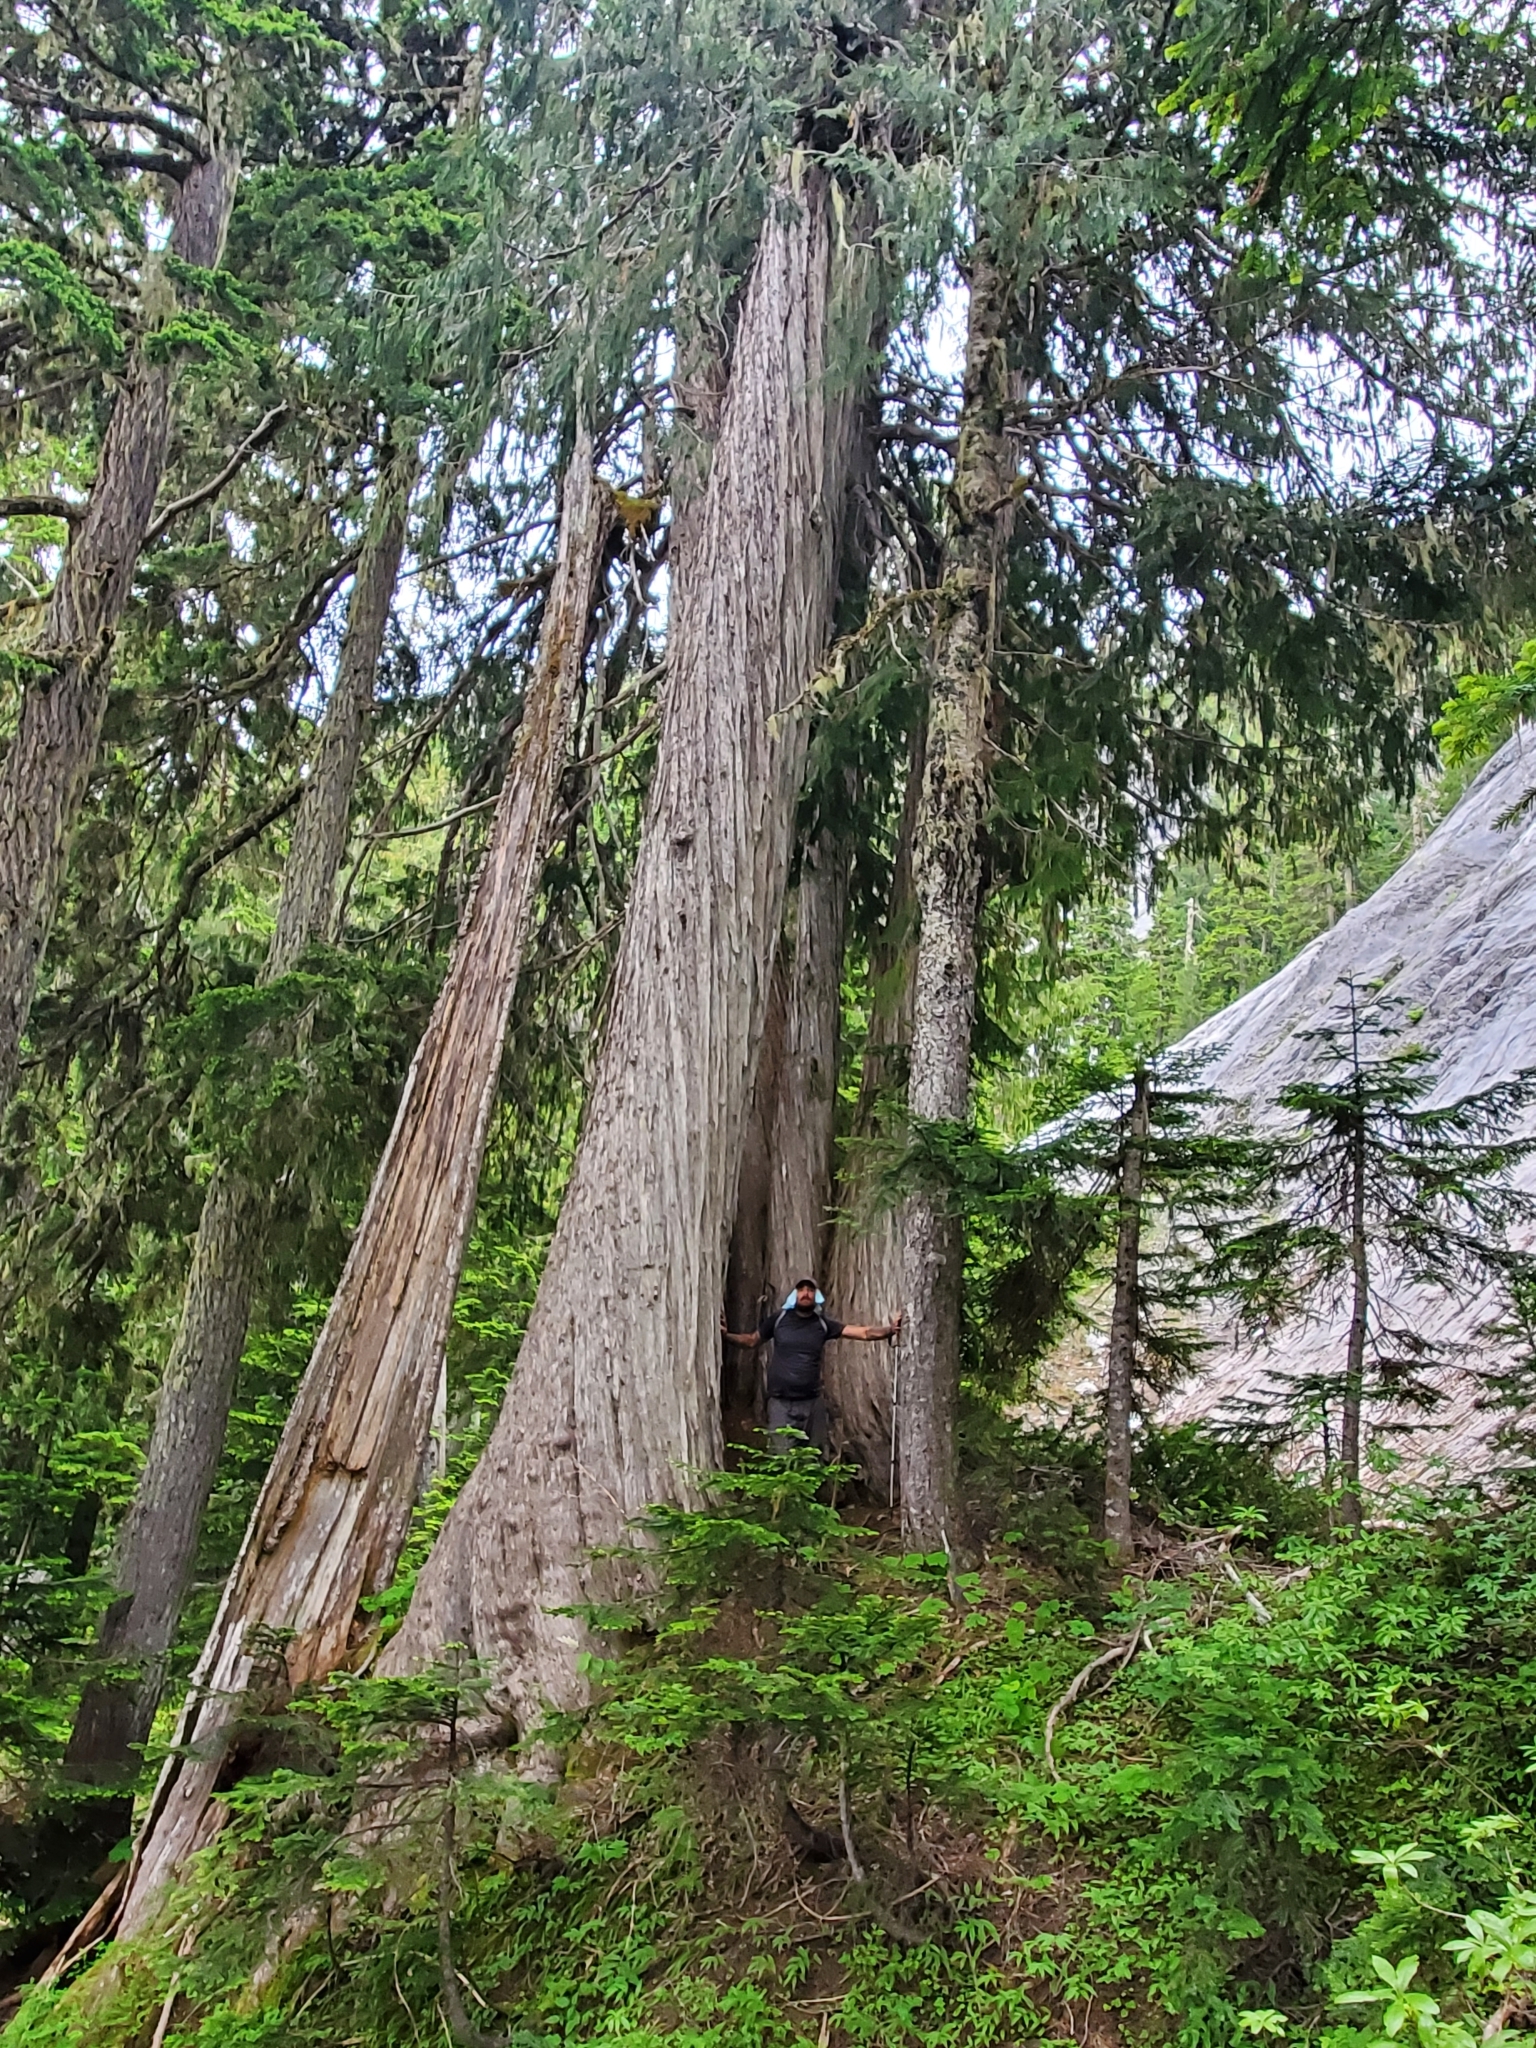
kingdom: Plantae
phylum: Tracheophyta
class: Pinopsida
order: Pinales
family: Cupressaceae
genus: Xanthocyparis
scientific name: Xanthocyparis nootkatensis
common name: Nootka cypress
